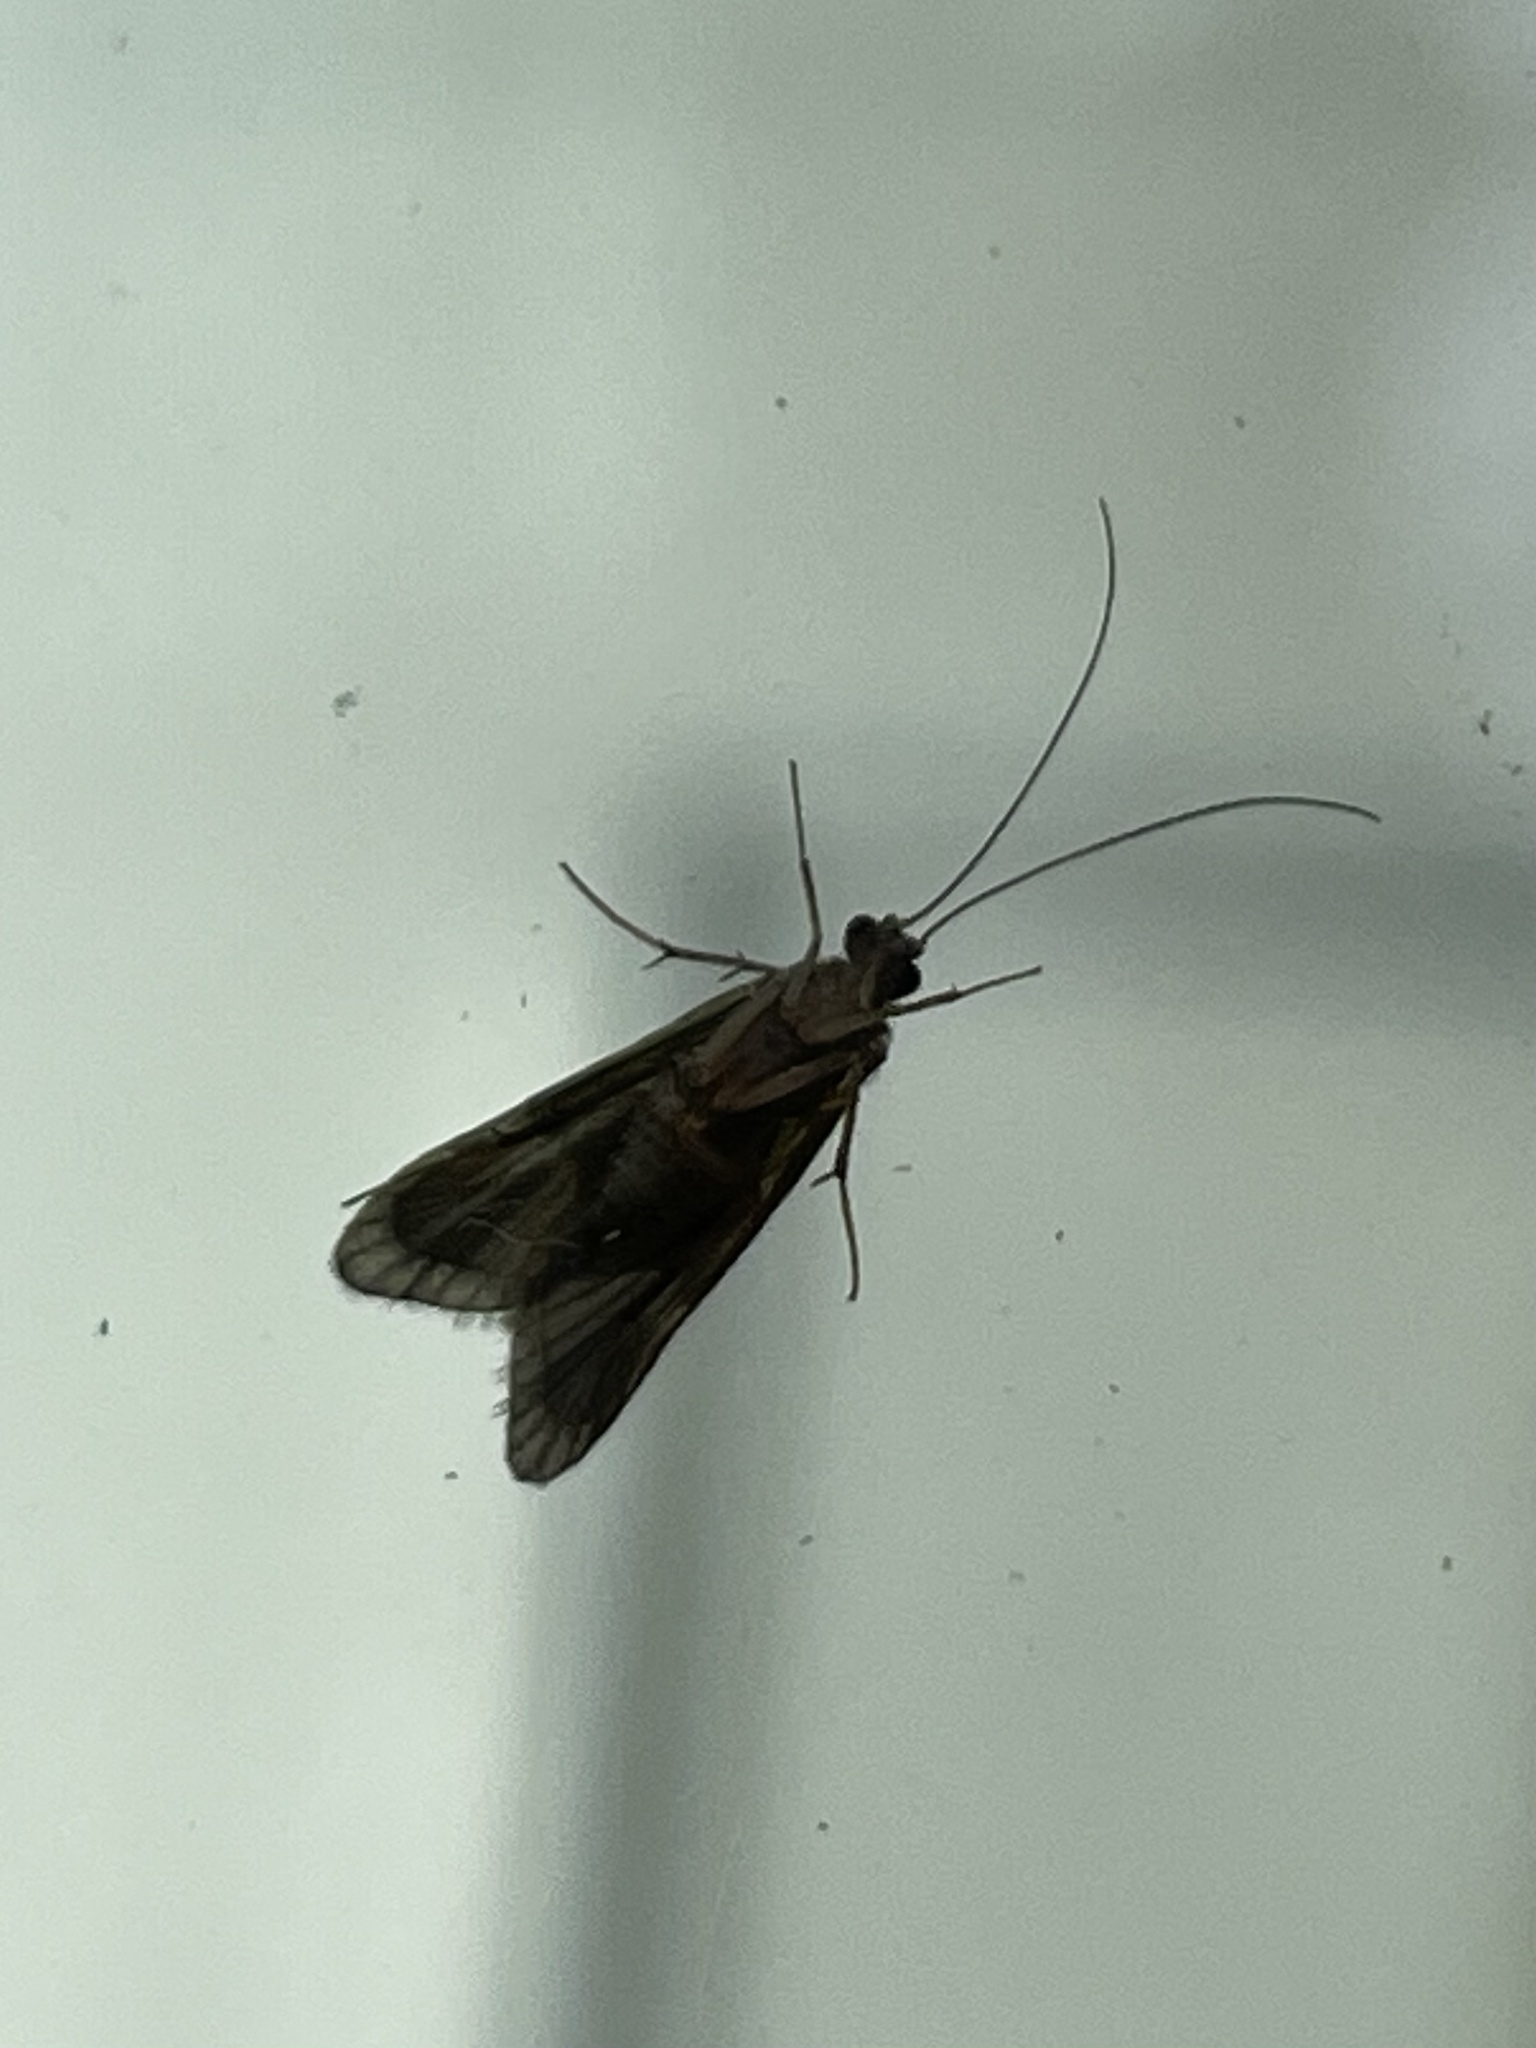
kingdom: Animalia
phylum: Arthropoda
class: Insecta
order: Trichoptera
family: Hydropsychidae
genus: Smicridea
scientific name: Smicridea fasciatella
